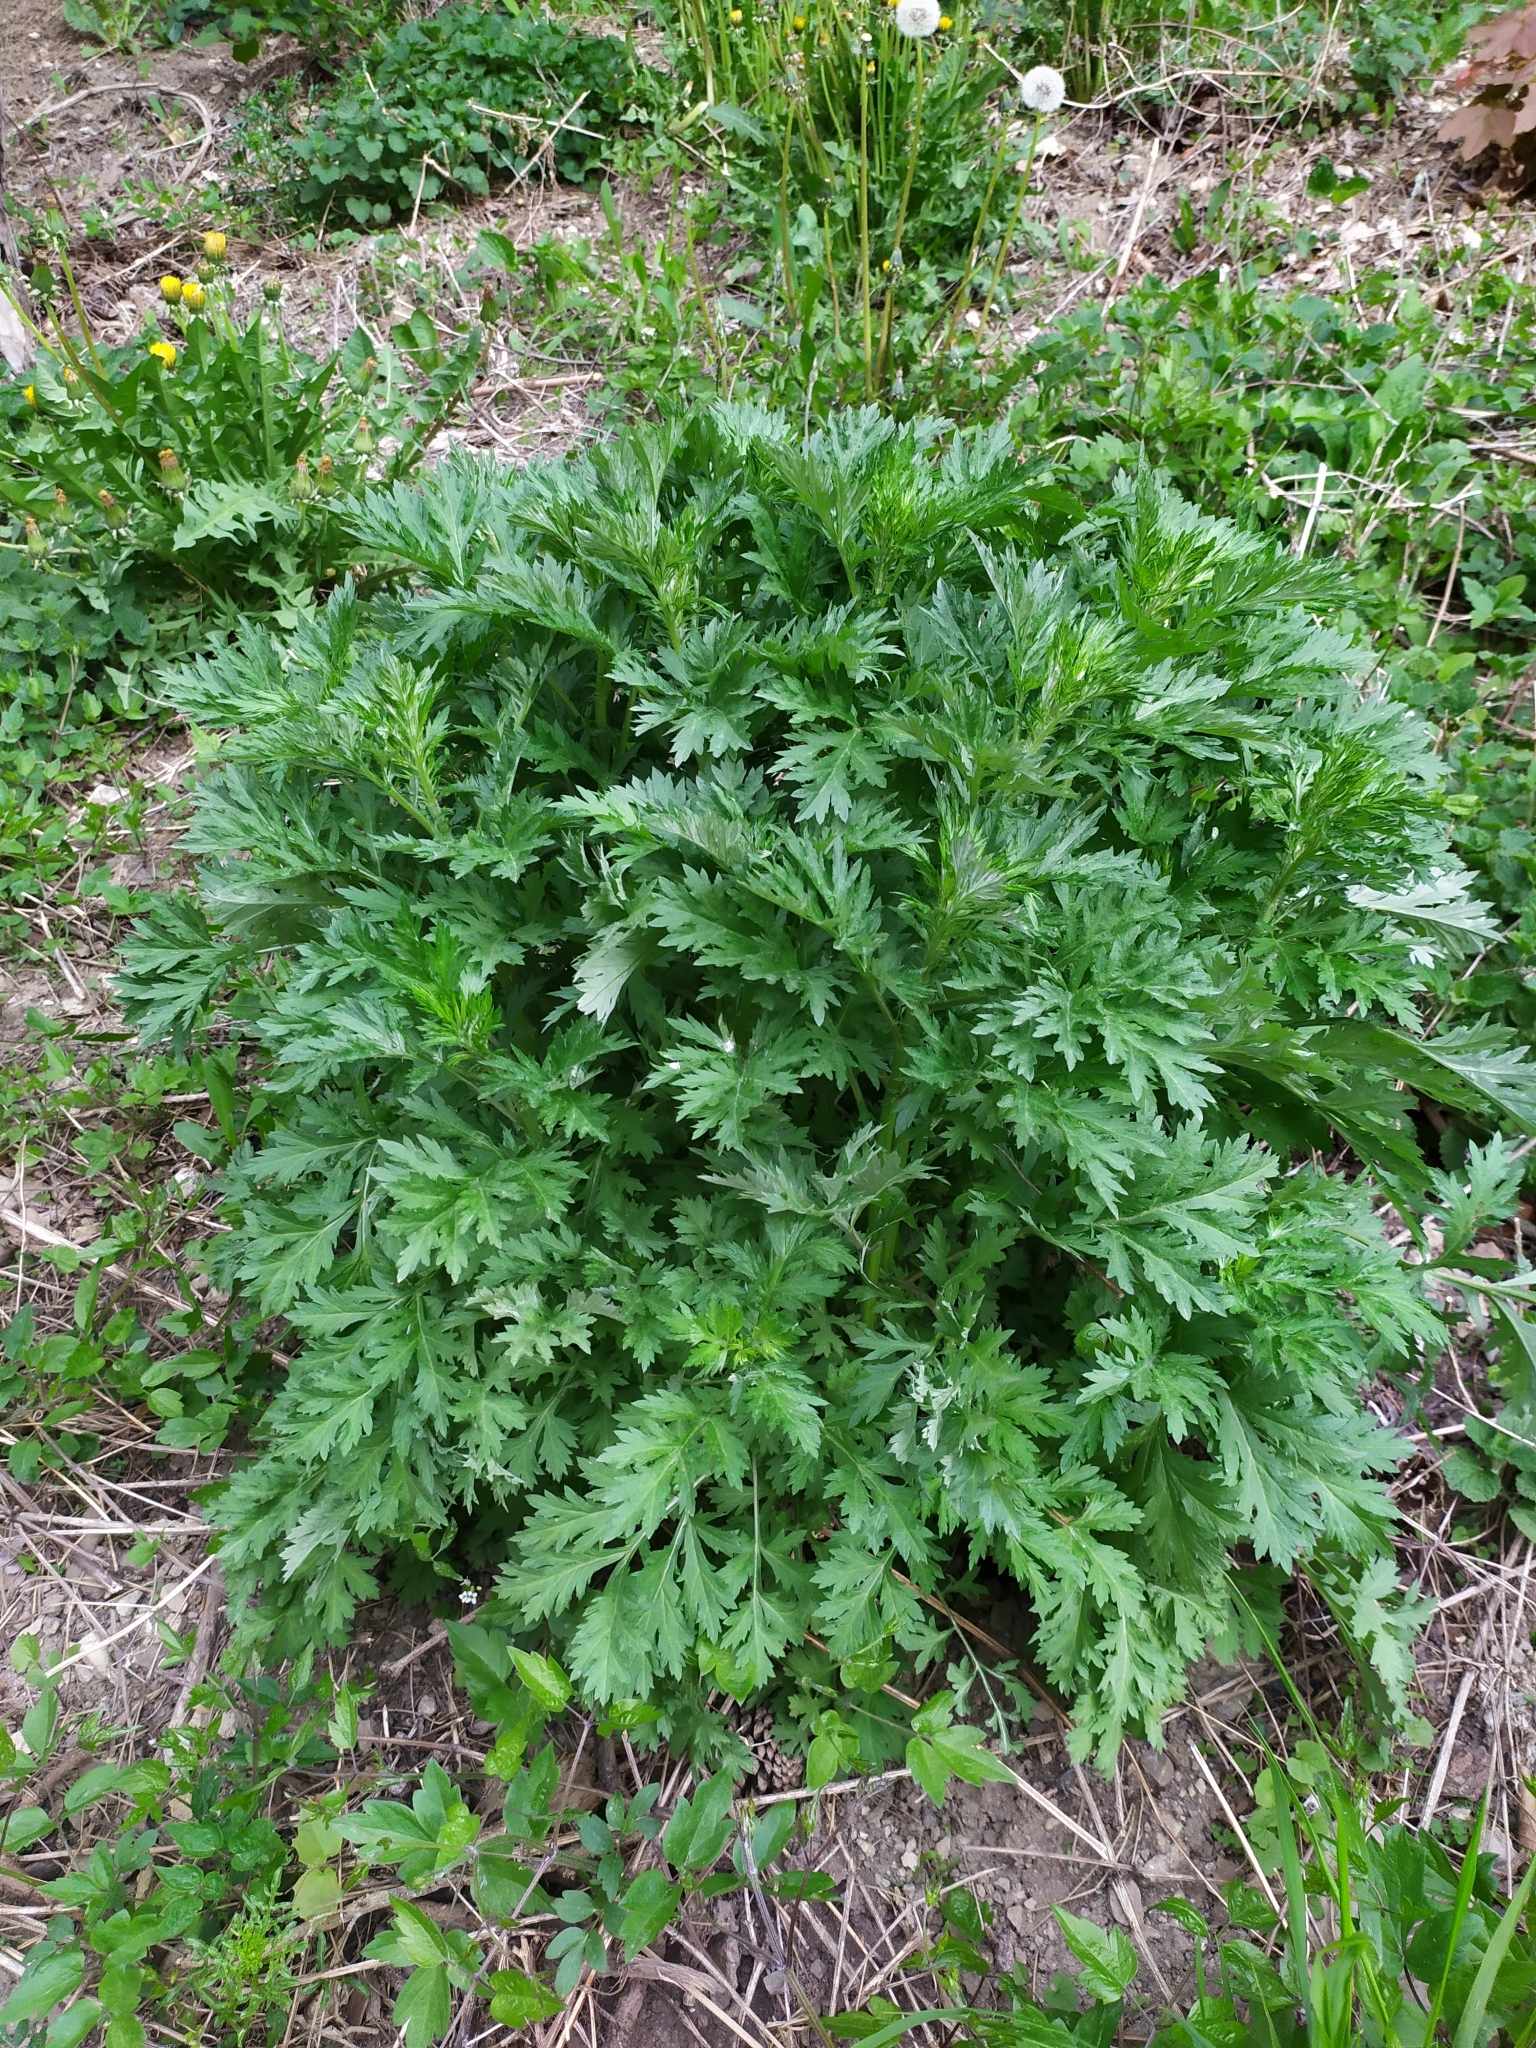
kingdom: Plantae
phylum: Tracheophyta
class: Magnoliopsida
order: Asterales
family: Asteraceae
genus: Artemisia
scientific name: Artemisia vulgaris
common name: Mugwort
